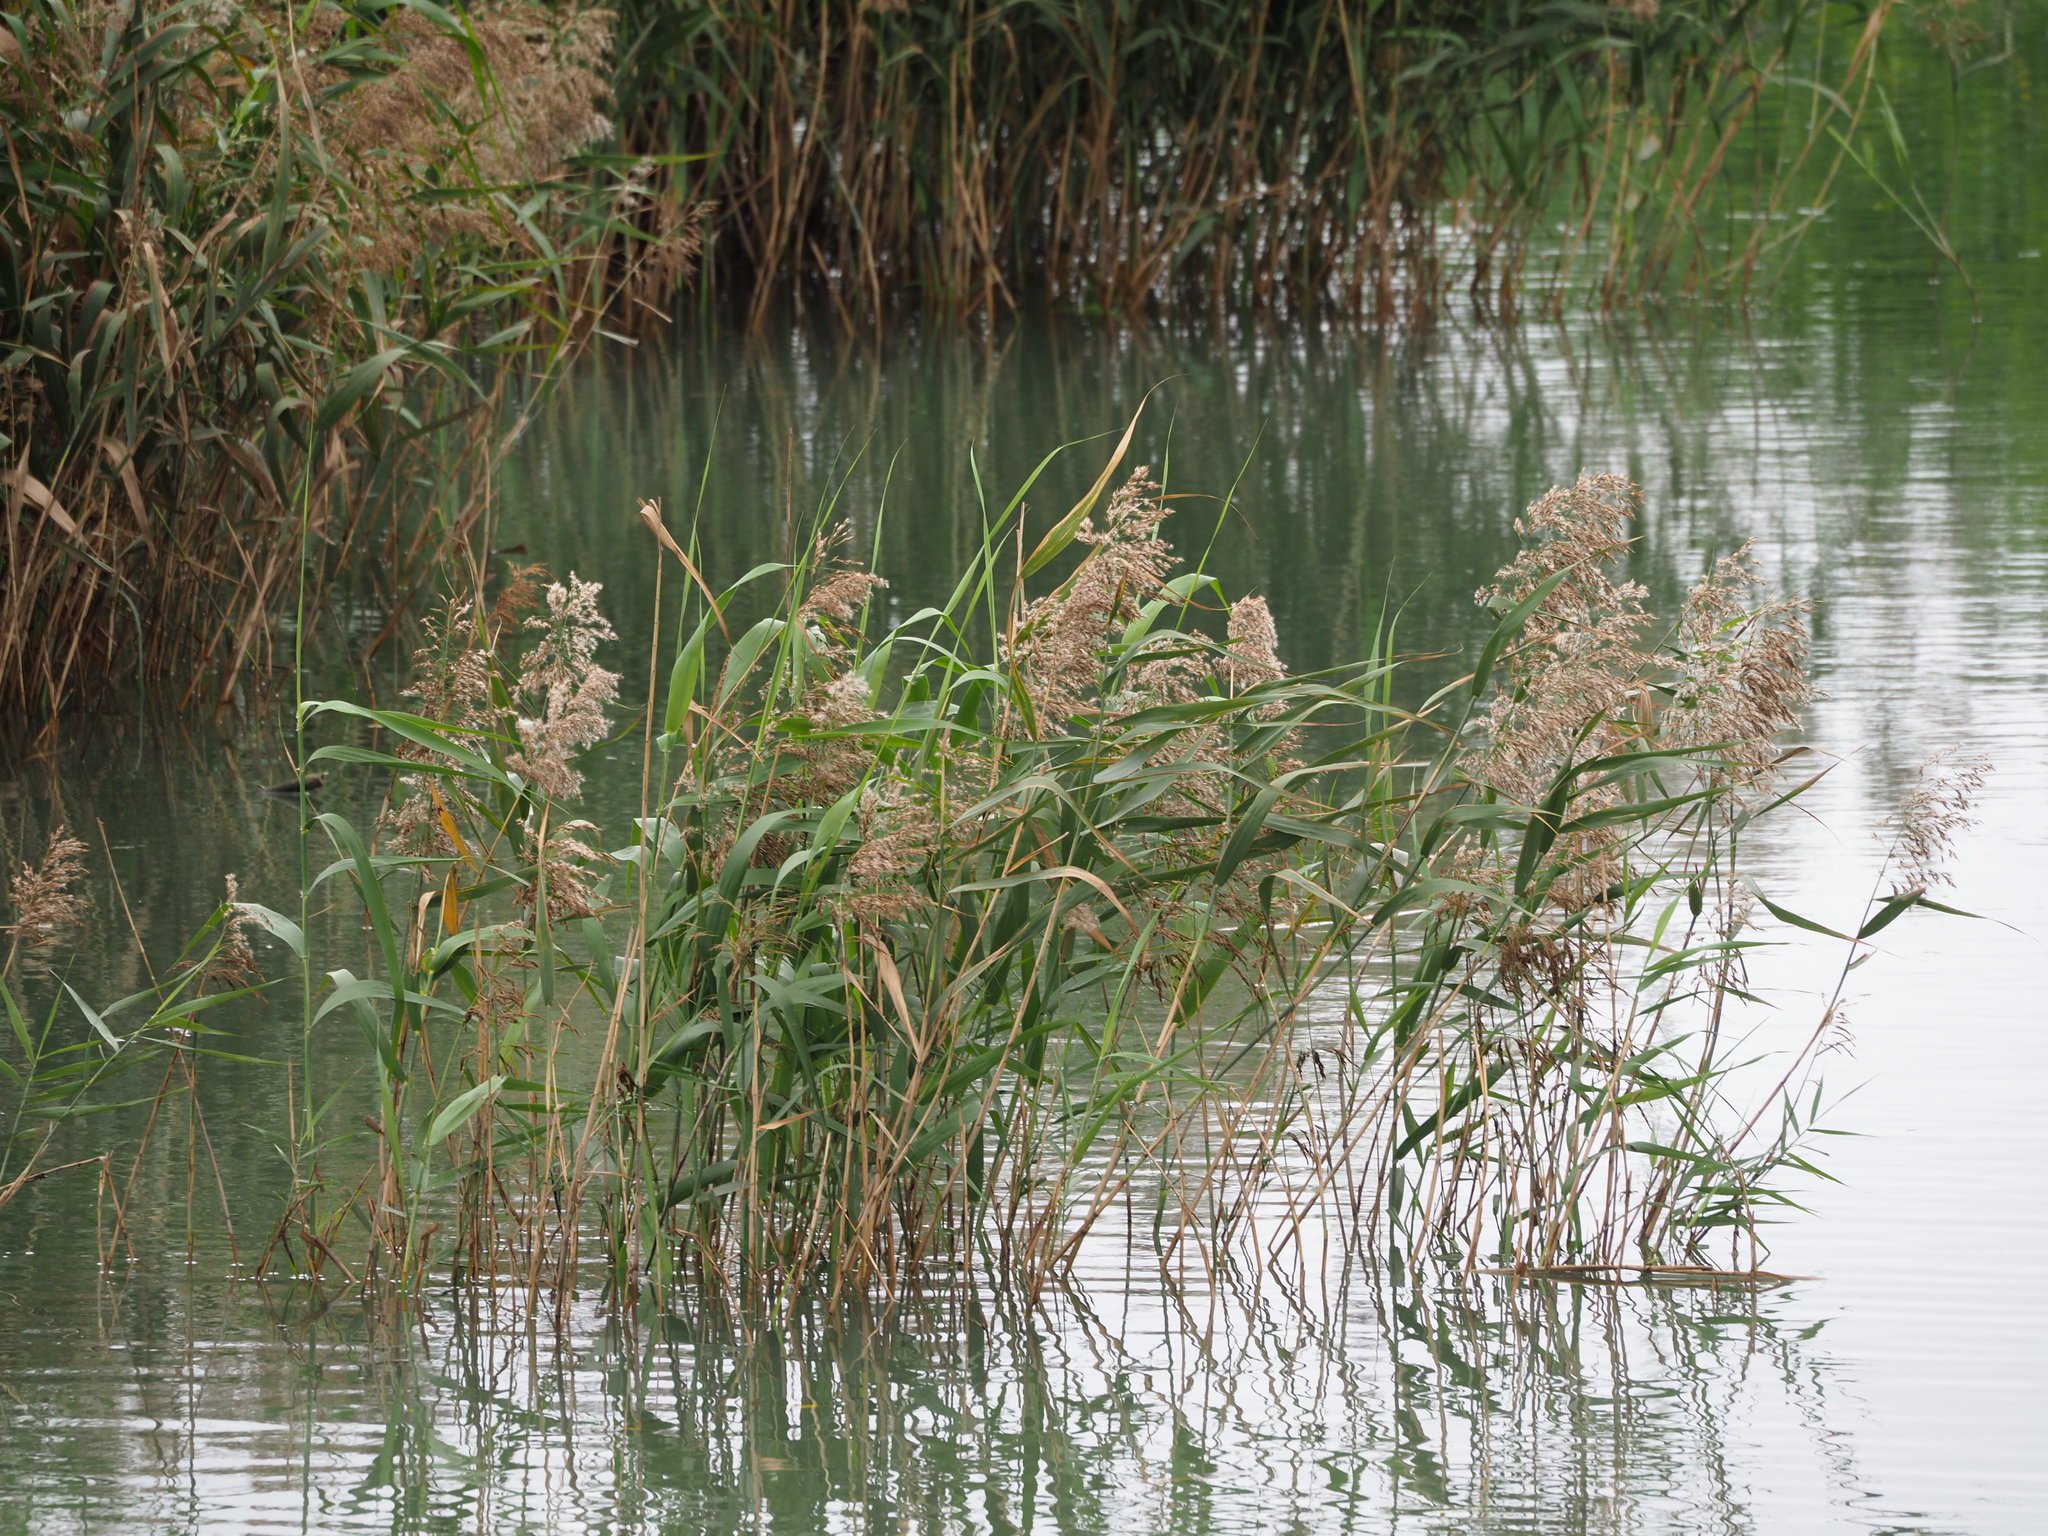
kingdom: Plantae
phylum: Tracheophyta
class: Liliopsida
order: Poales
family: Poaceae
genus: Phragmites
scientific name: Phragmites australis
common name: Common reed
